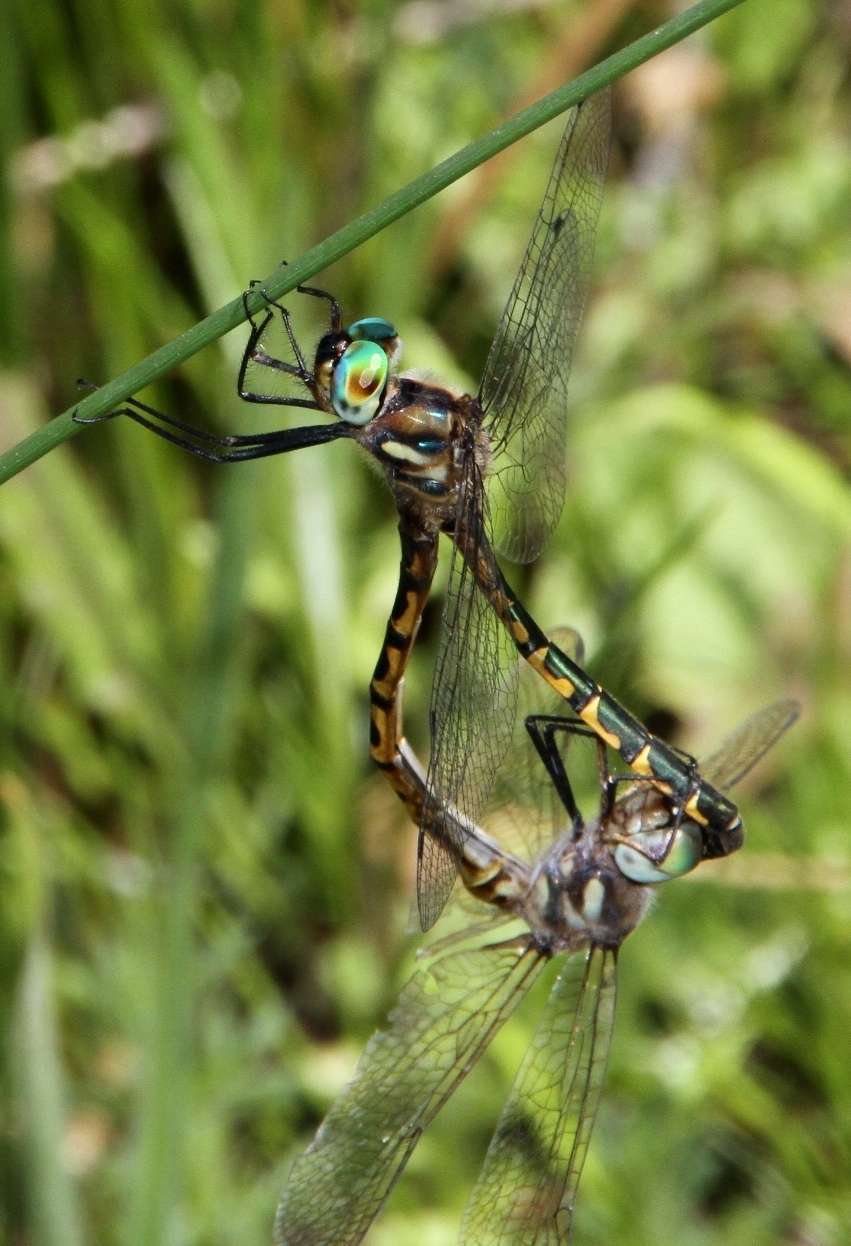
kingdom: Animalia
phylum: Arthropoda
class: Insecta
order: Odonata
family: Corduliidae
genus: Hemicordulia
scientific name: Hemicordulia australiae
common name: Sentry dragonfly
